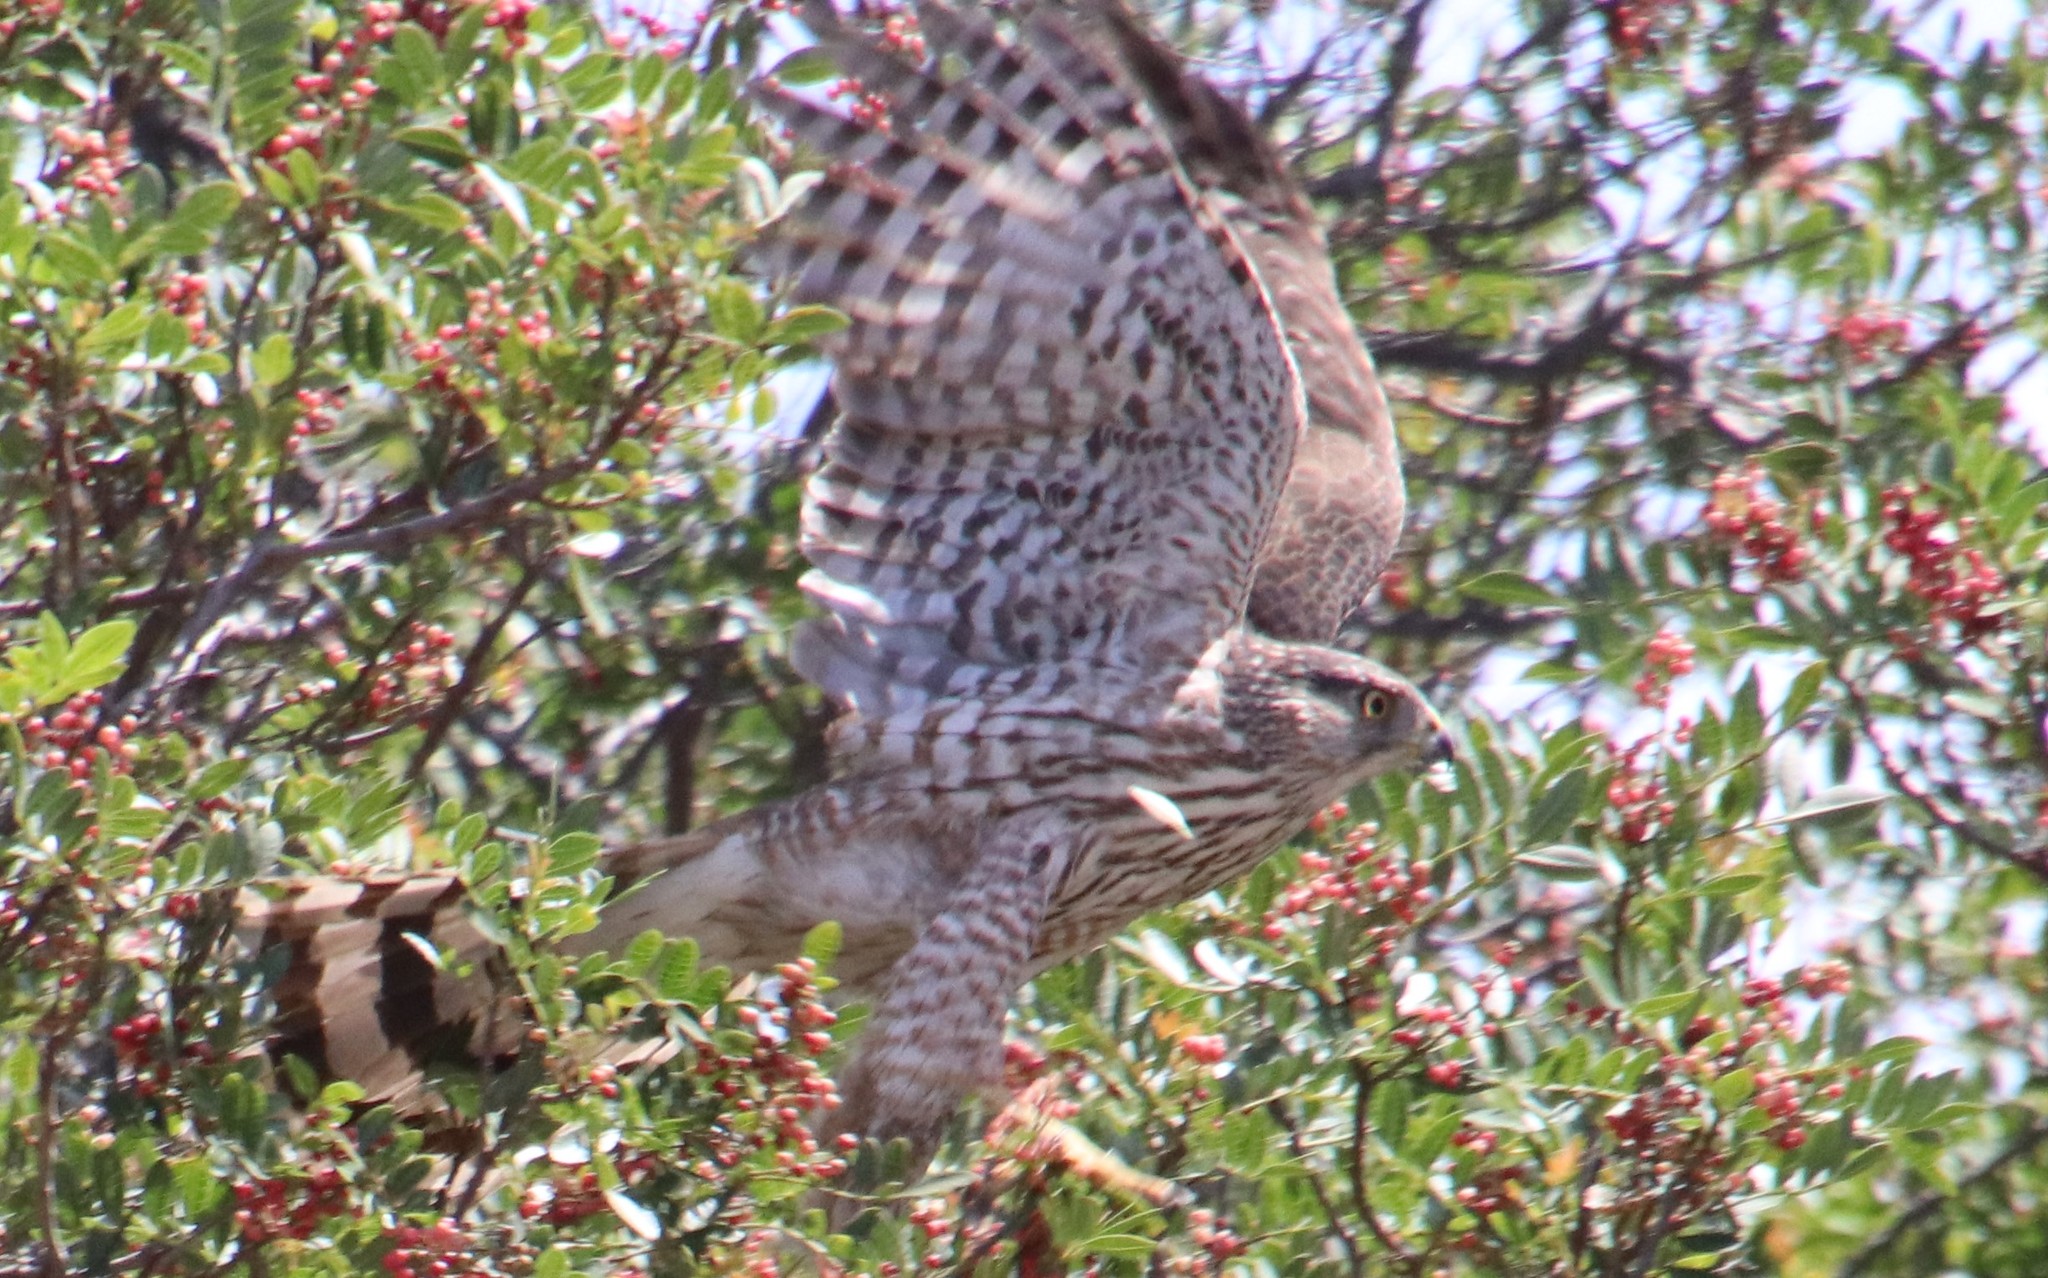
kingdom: Animalia
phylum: Chordata
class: Aves
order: Accipitriformes
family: Accipitridae
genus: Accipiter
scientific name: Accipiter cooperii
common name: Cooper's hawk
